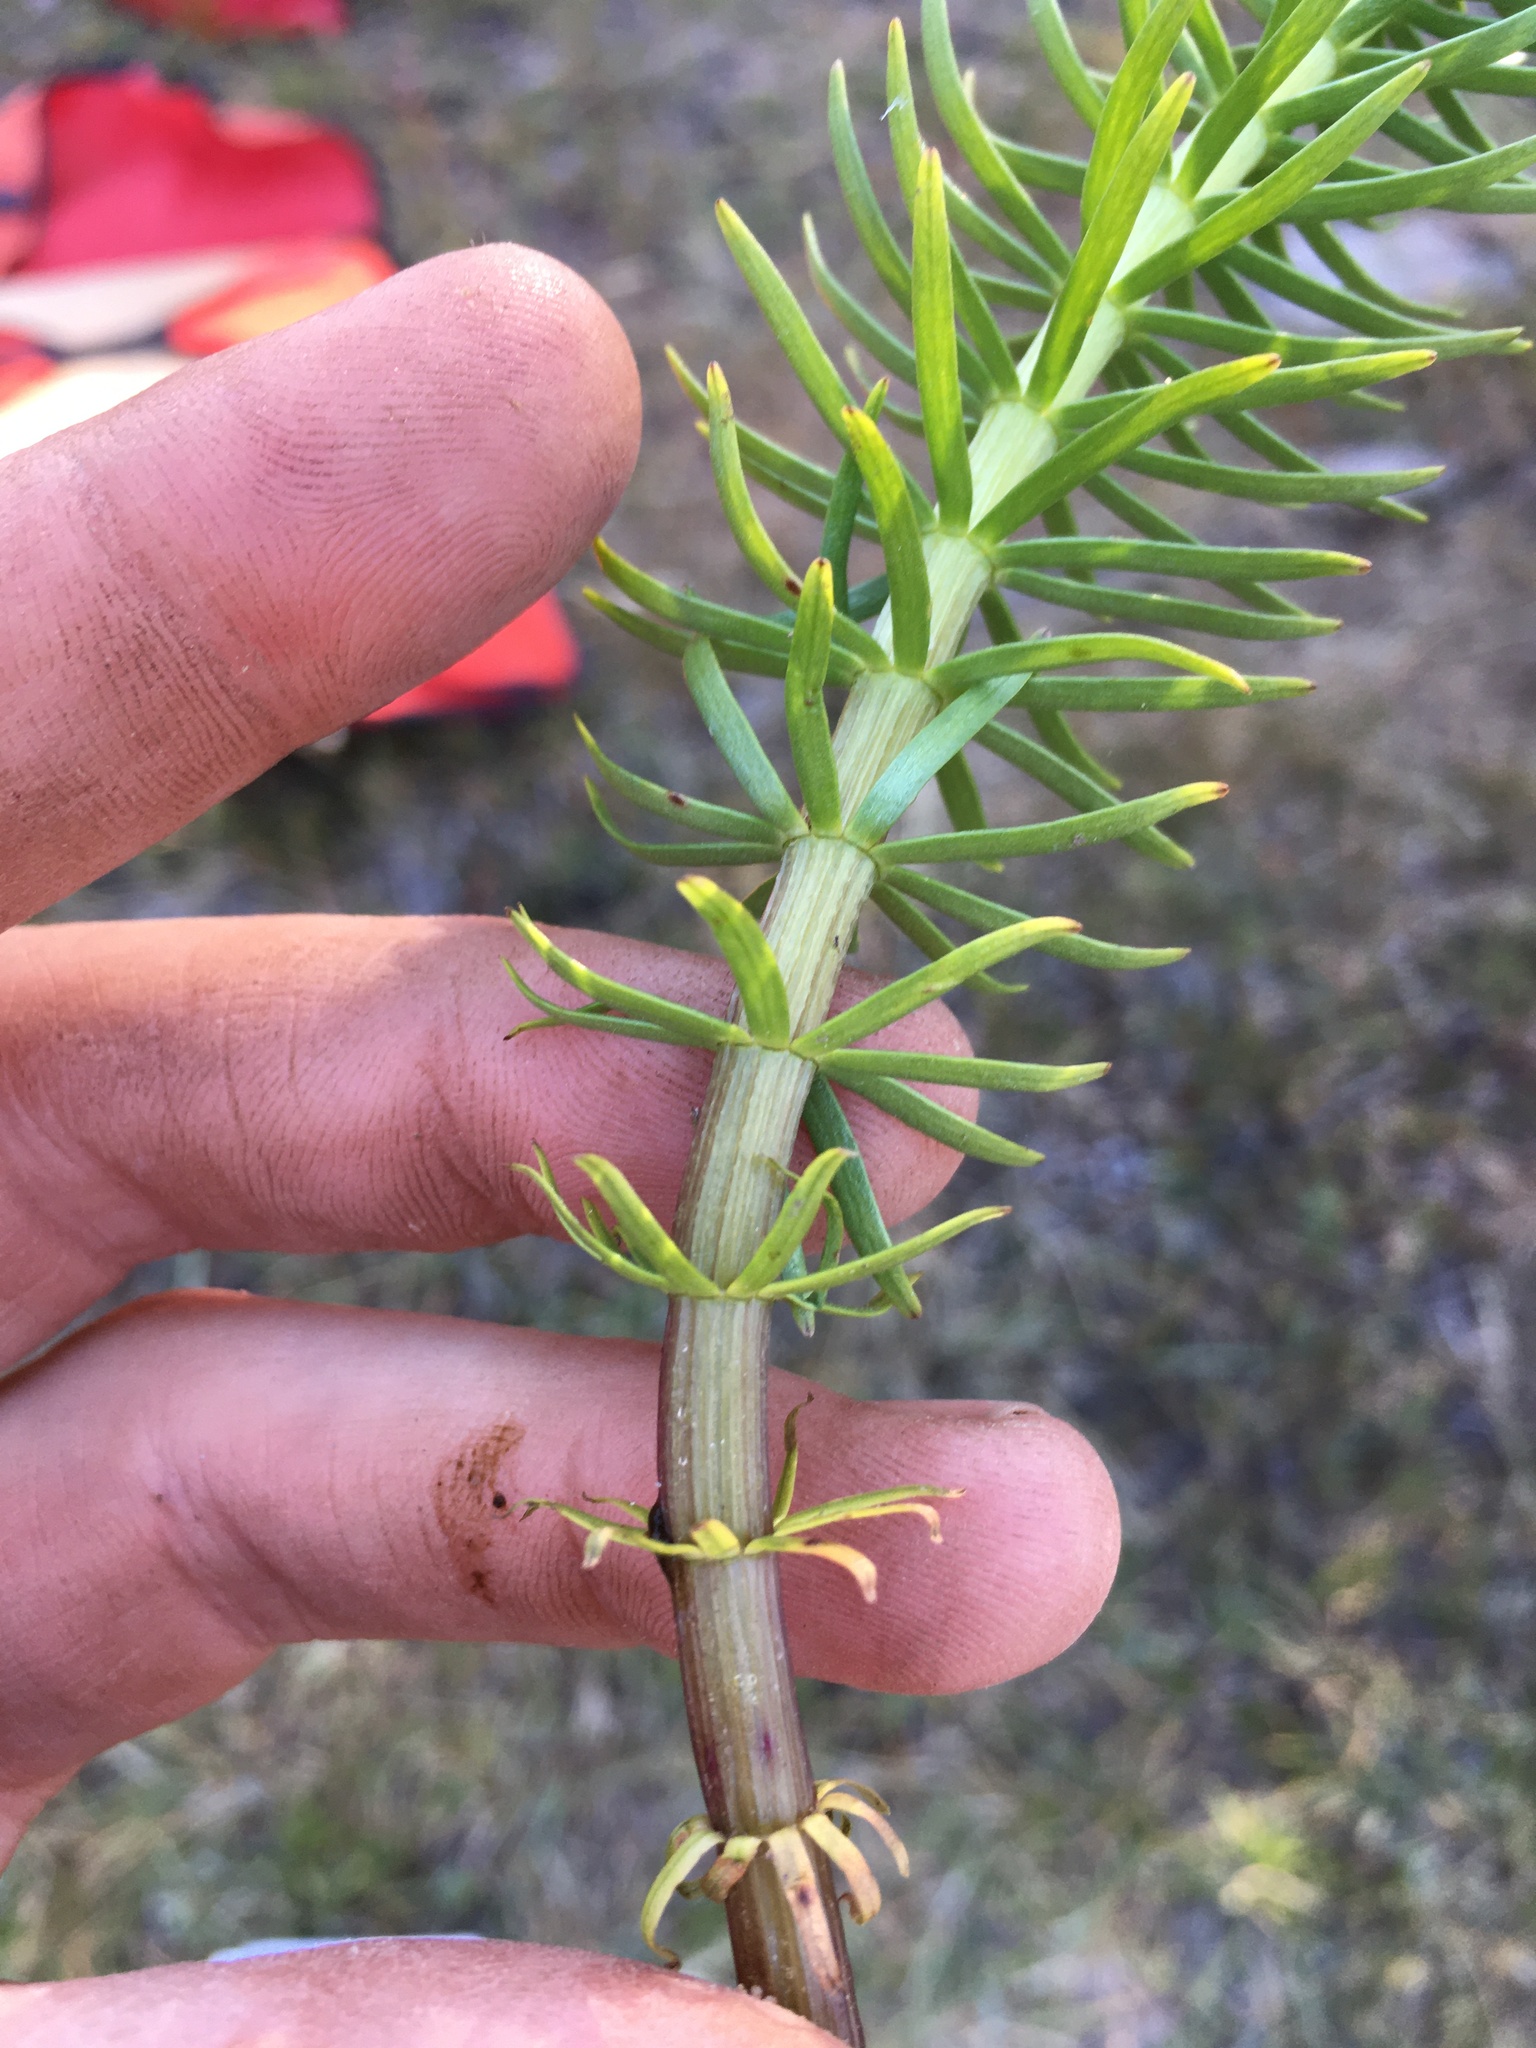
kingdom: Plantae
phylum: Tracheophyta
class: Magnoliopsida
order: Lamiales
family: Plantaginaceae
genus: Hippuris
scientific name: Hippuris vulgaris
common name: Mare's-tail
